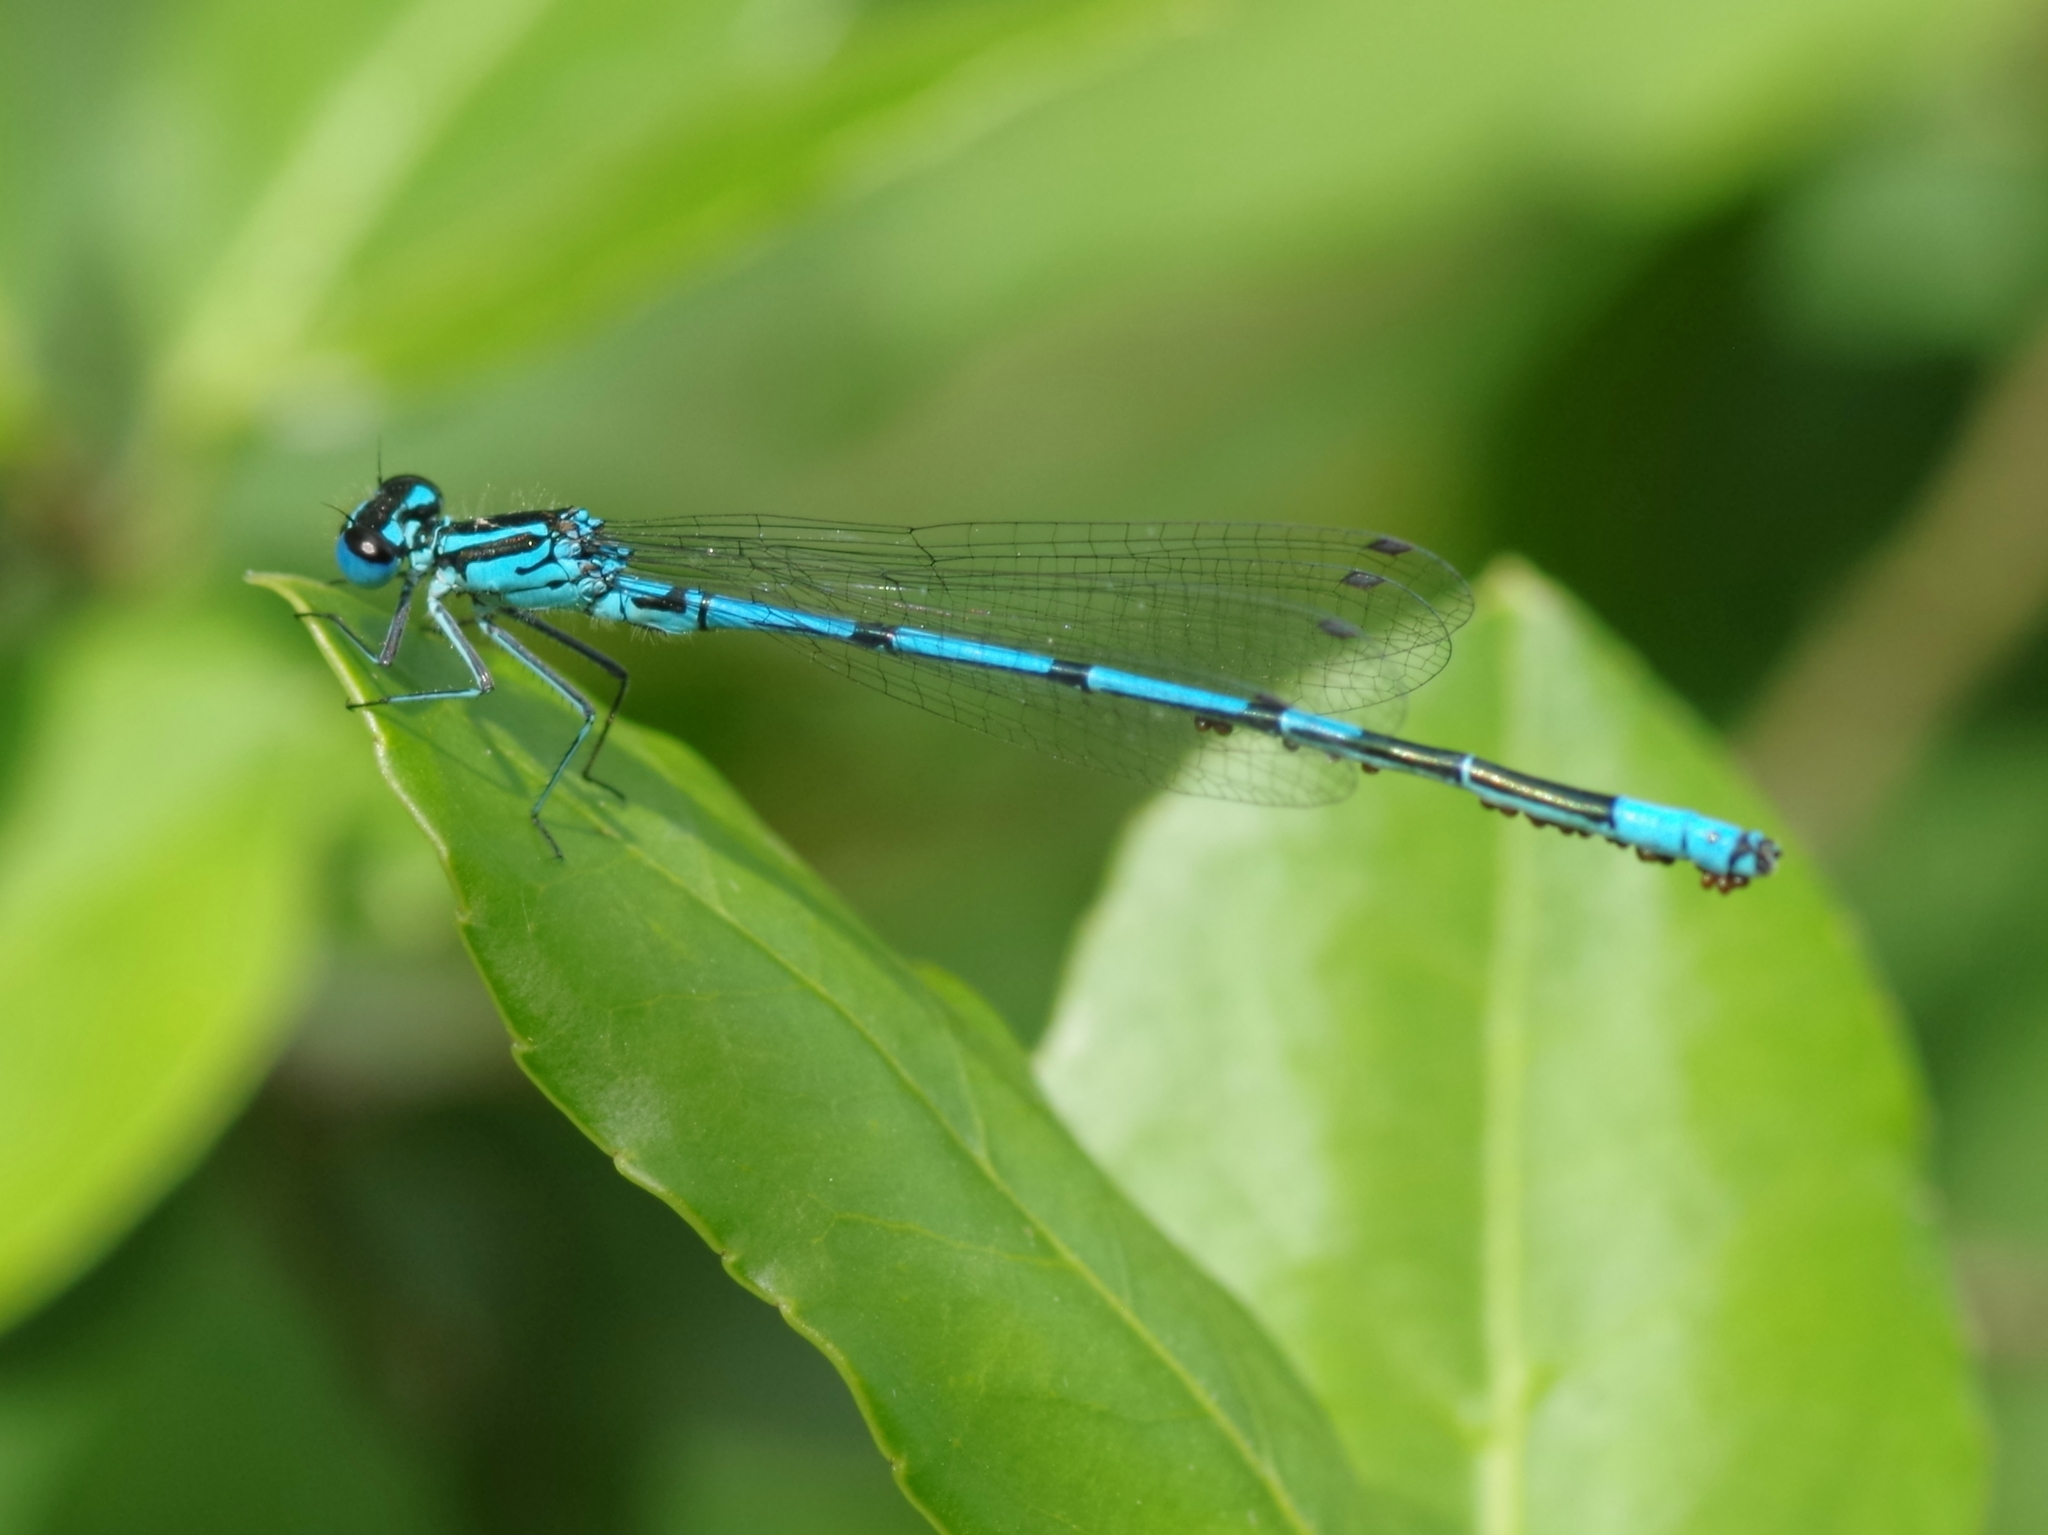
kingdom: Animalia
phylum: Arthropoda
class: Insecta
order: Odonata
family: Coenagrionidae
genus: Coenagrion
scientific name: Coenagrion puella
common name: Azure damselfly
